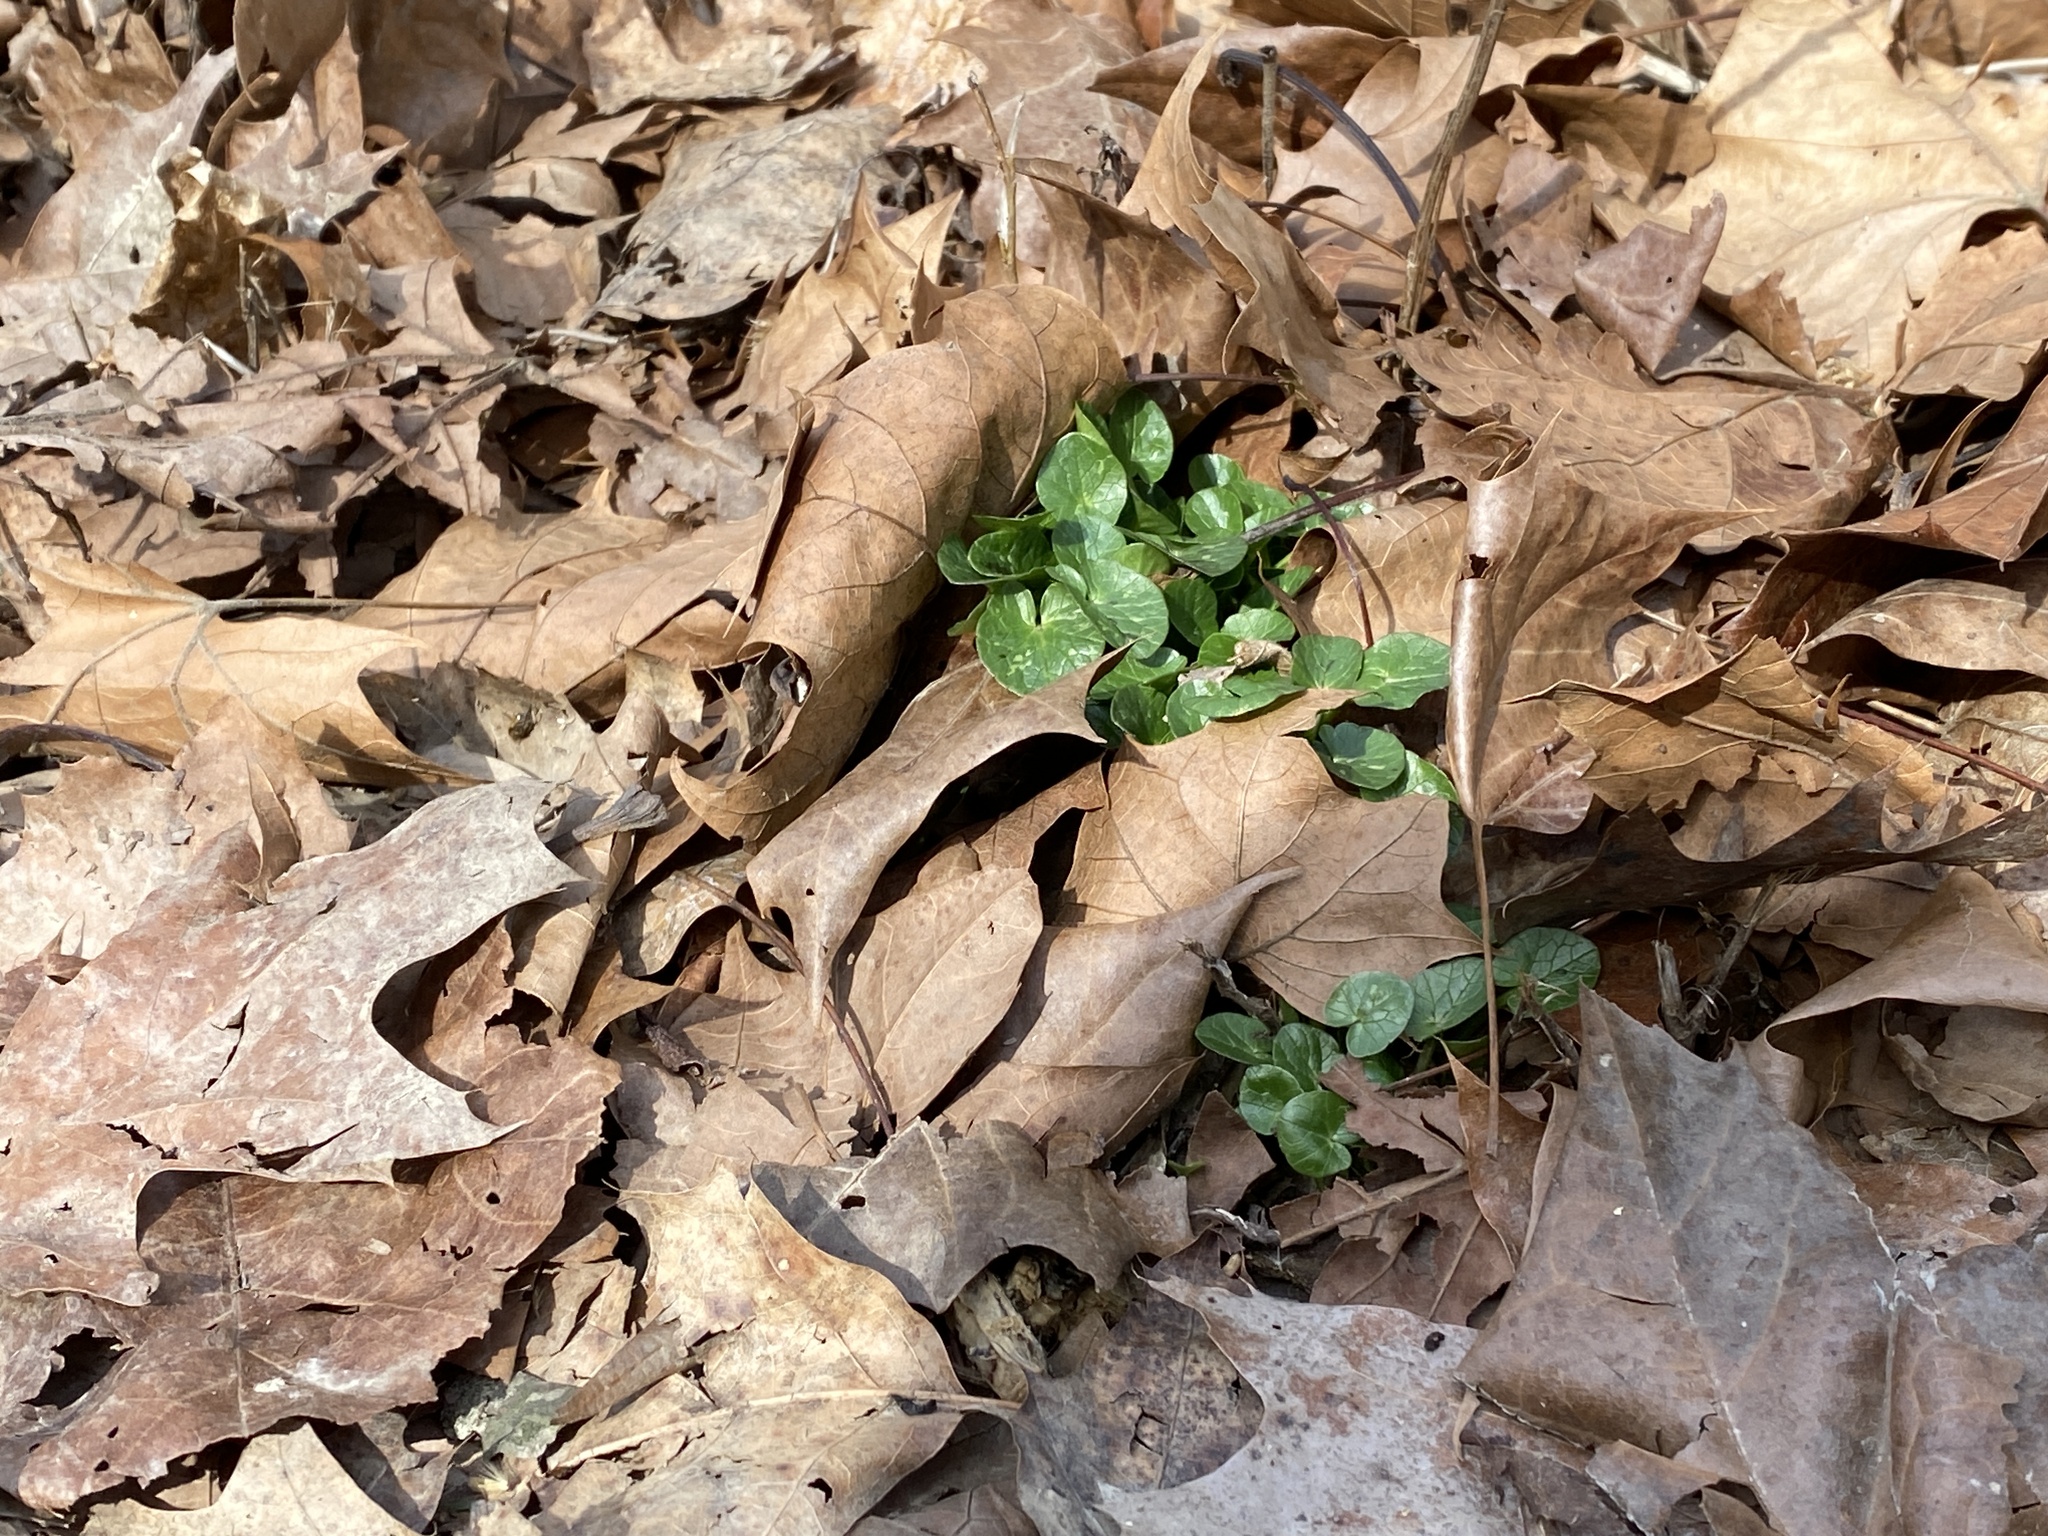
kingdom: Plantae
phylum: Tracheophyta
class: Magnoliopsida
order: Ranunculales
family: Ranunculaceae
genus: Ficaria
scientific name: Ficaria verna
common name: Lesser celandine
